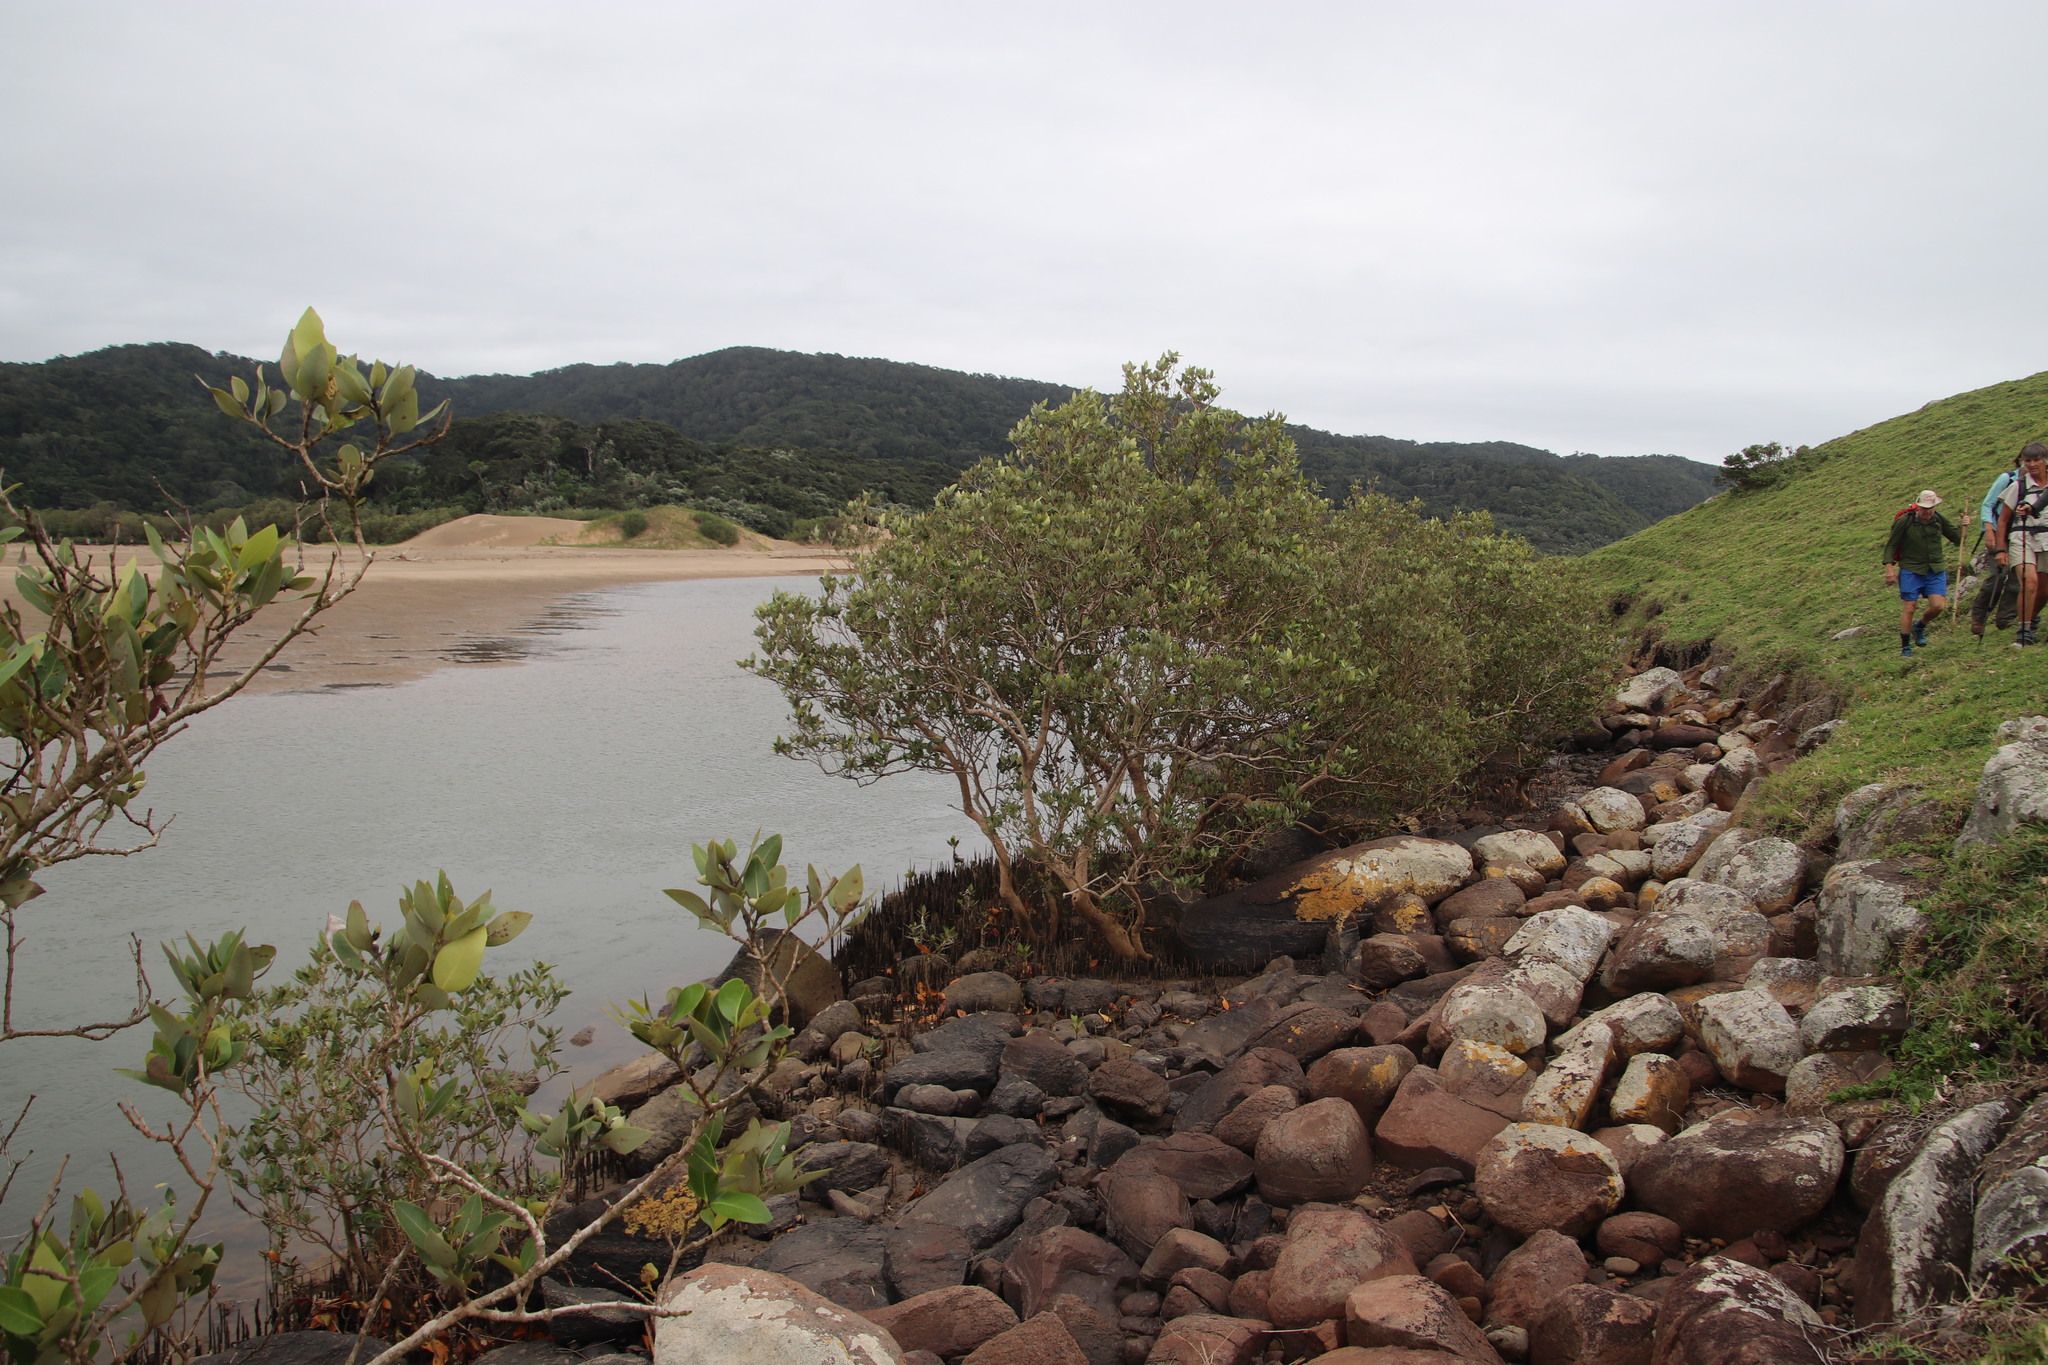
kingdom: Plantae
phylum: Tracheophyta
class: Magnoliopsida
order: Lamiales
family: Acanthaceae
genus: Avicennia
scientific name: Avicennia marina
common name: Gray mangrove
